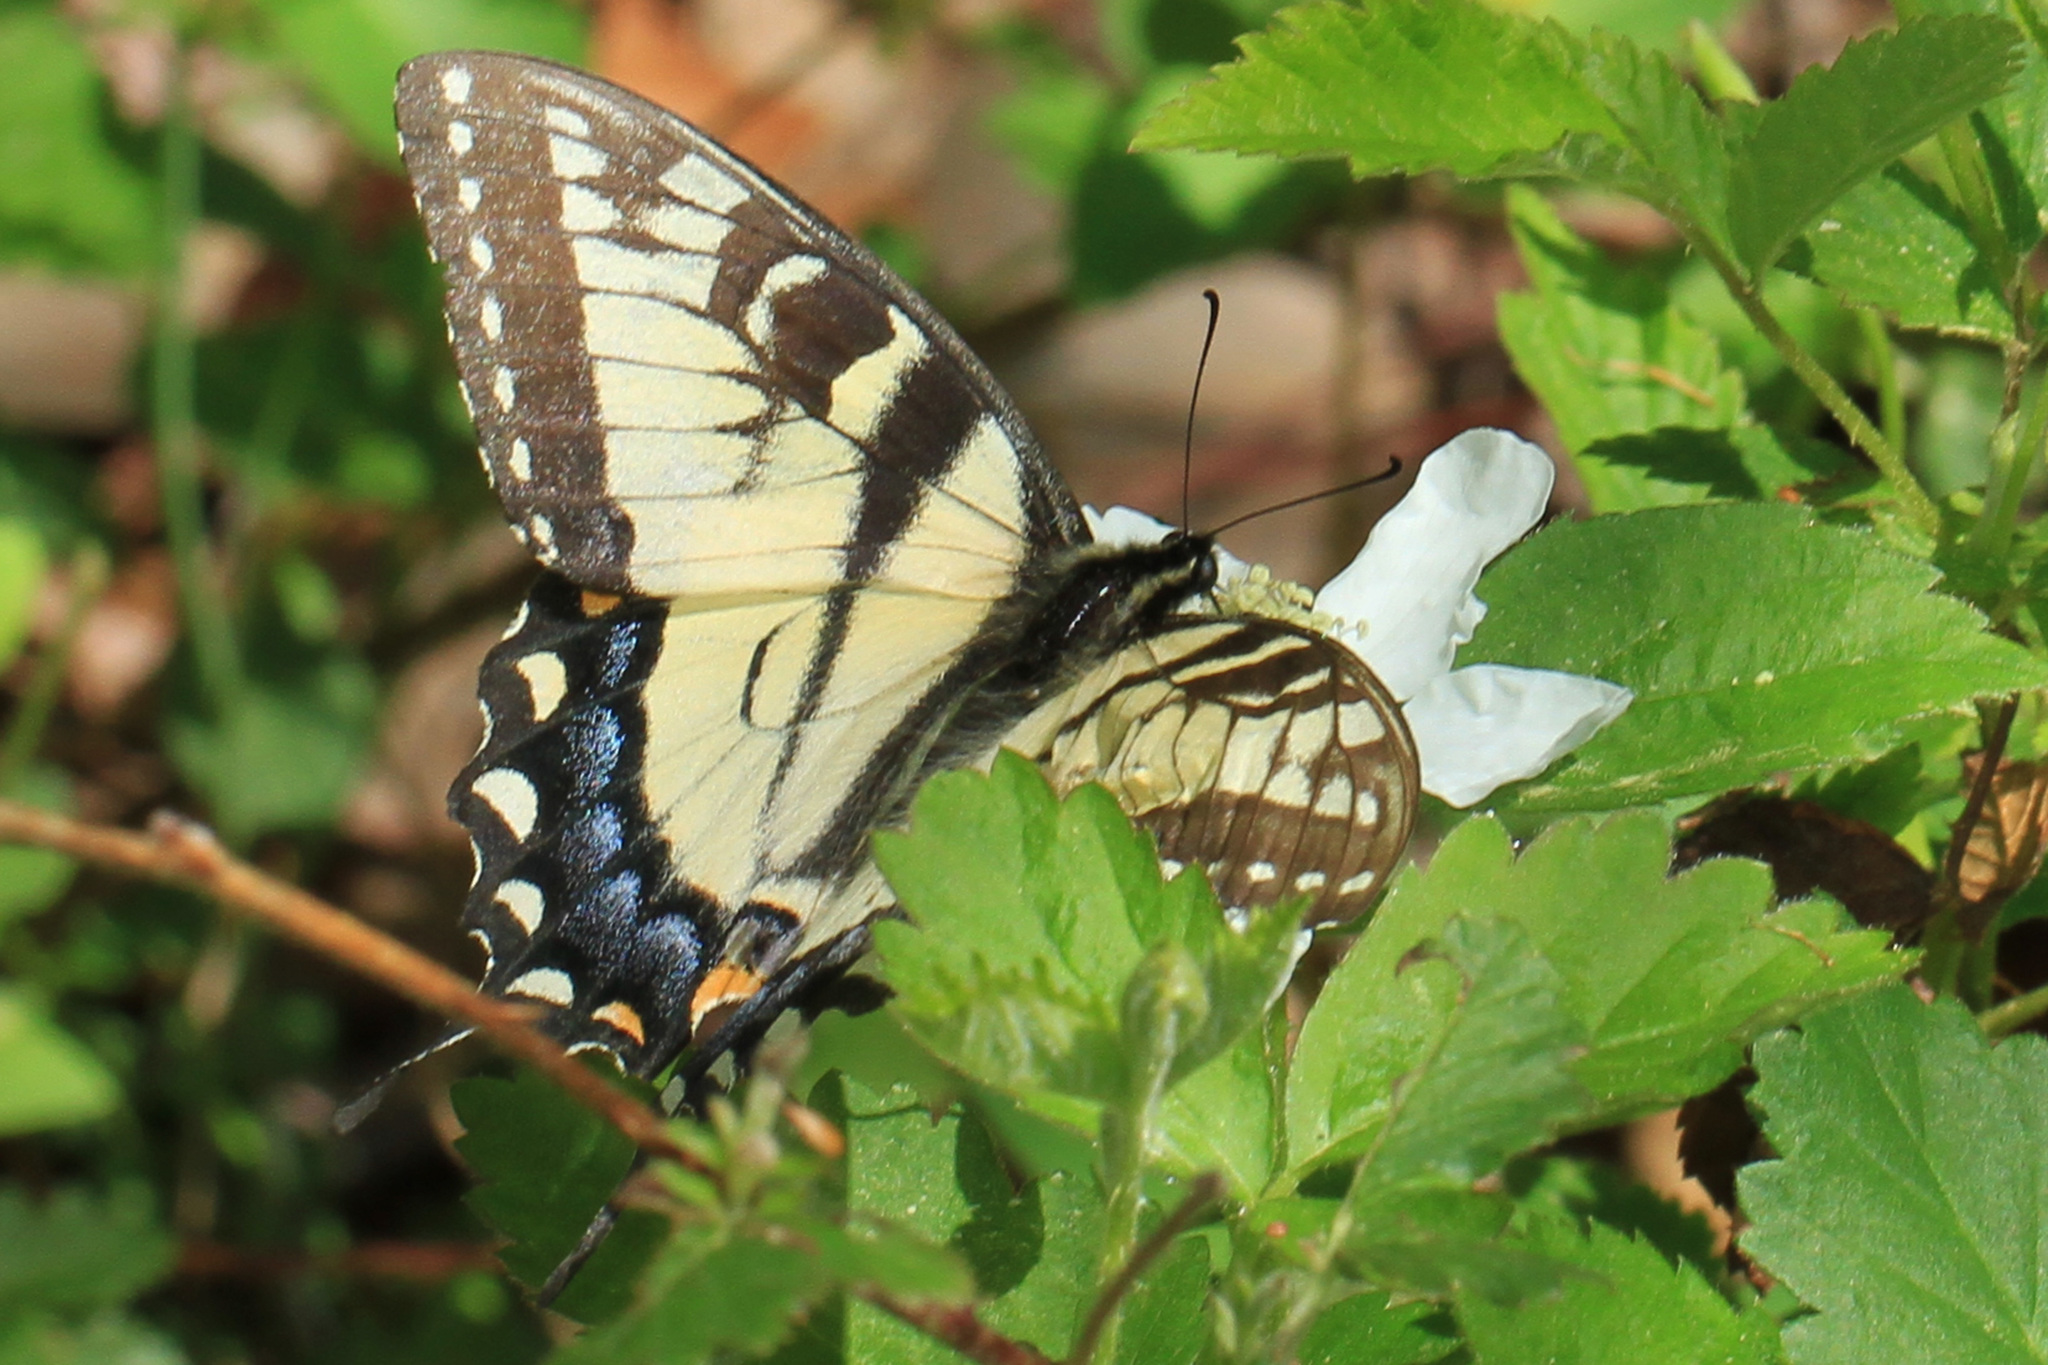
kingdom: Animalia
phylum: Arthropoda
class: Insecta
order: Lepidoptera
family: Papilionidae
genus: Papilio
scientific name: Papilio glaucus
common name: Tiger swallowtail
